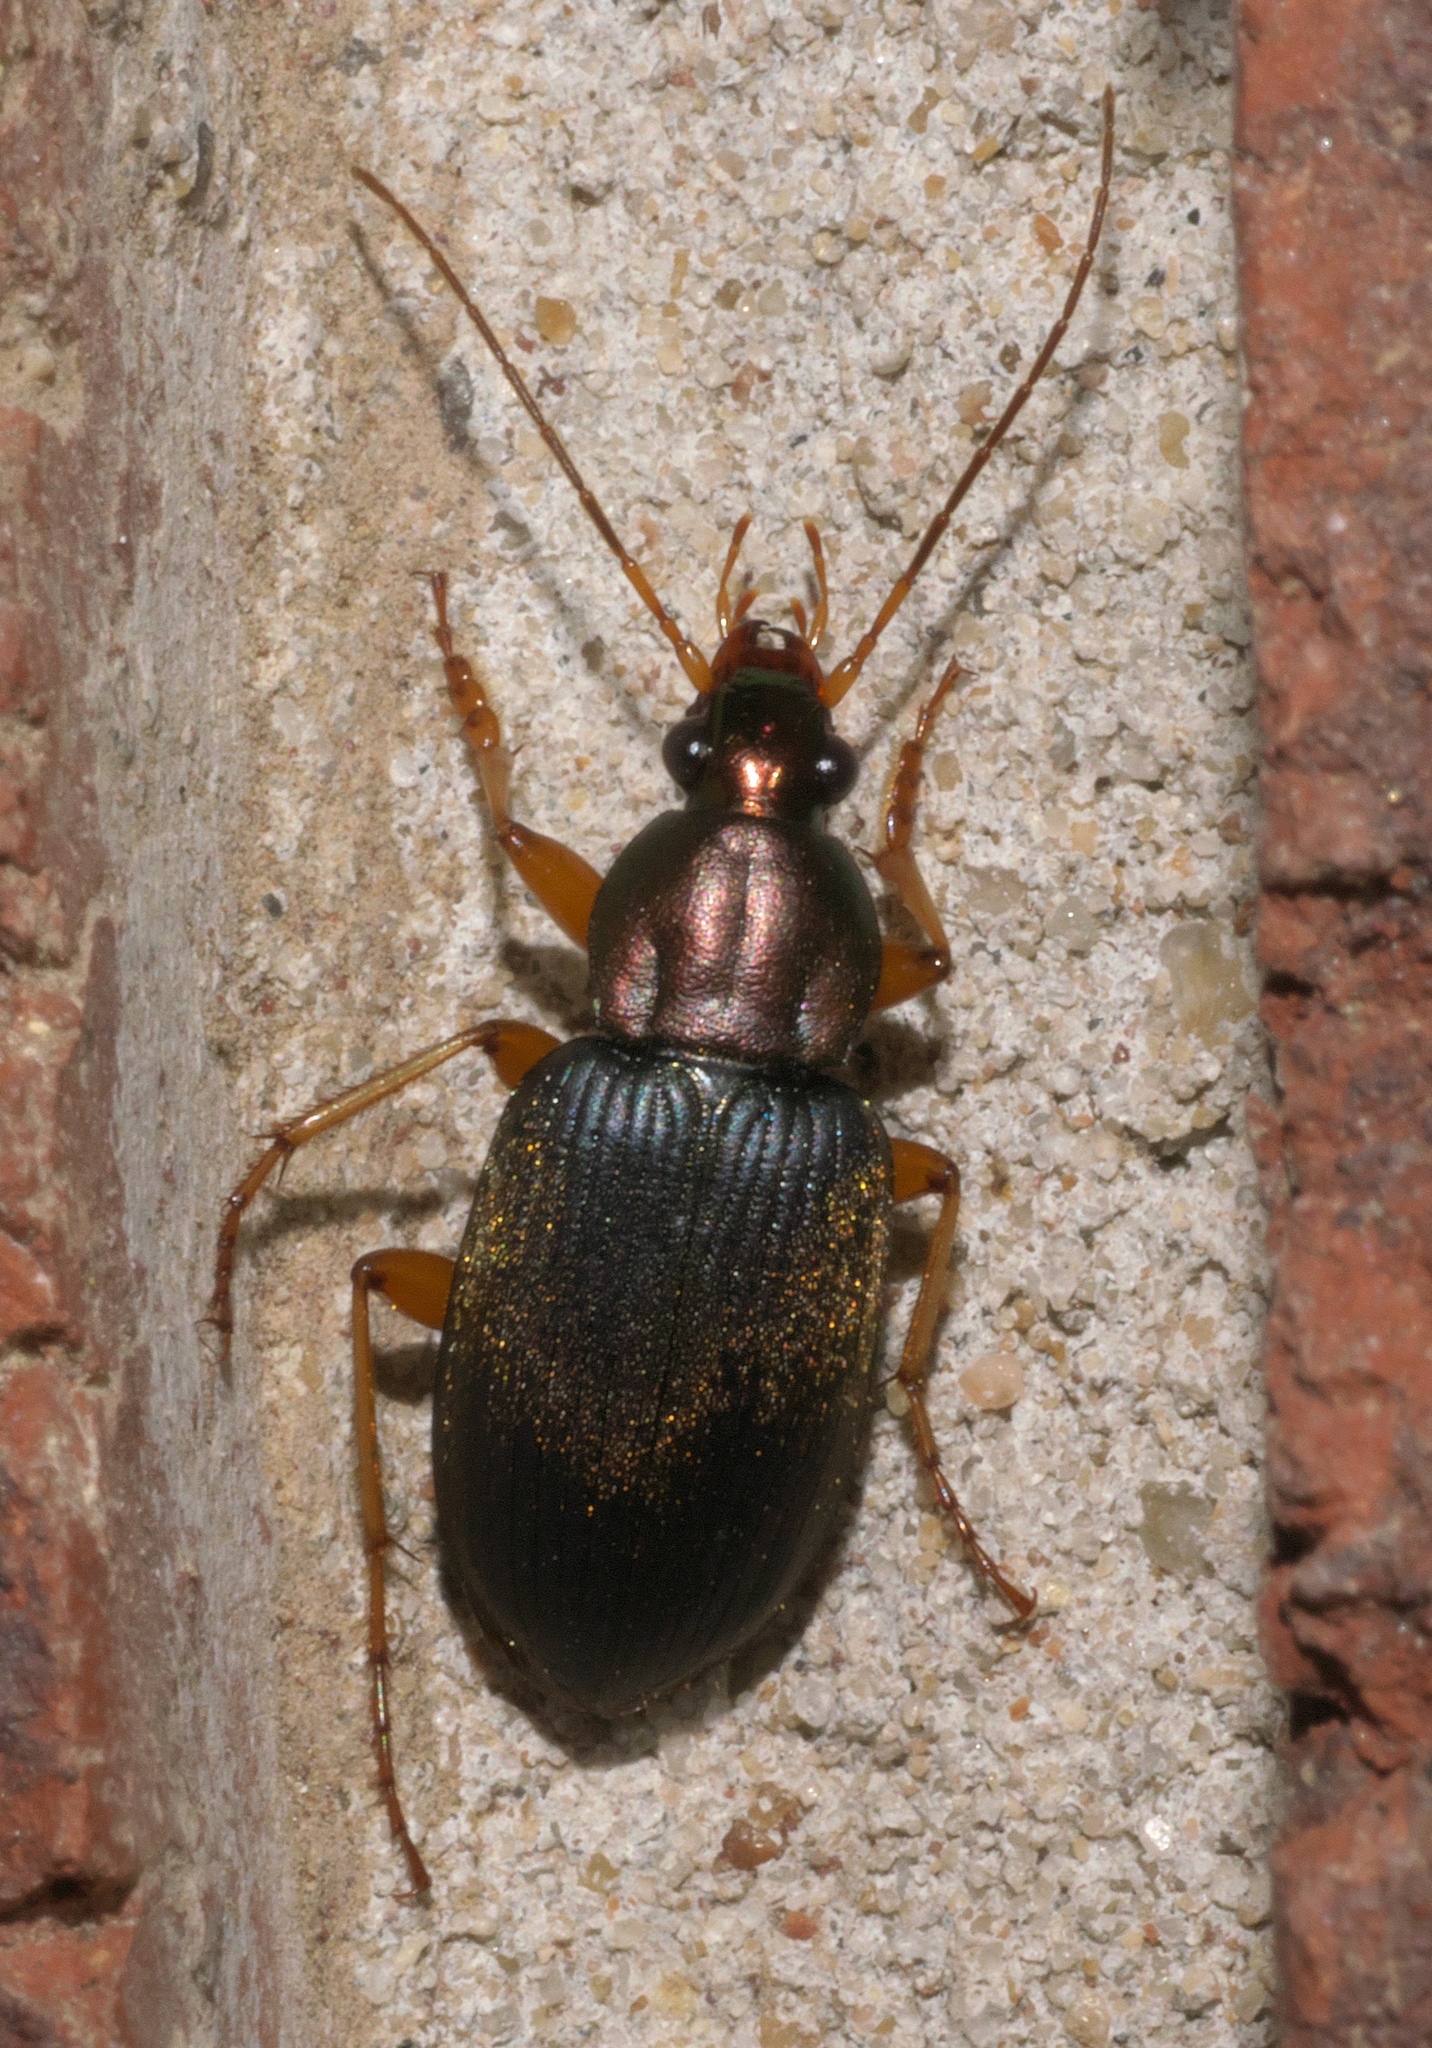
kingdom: Animalia
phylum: Arthropoda
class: Insecta
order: Coleoptera
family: Carabidae
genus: Chlaenius
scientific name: Chlaenius tricolor
